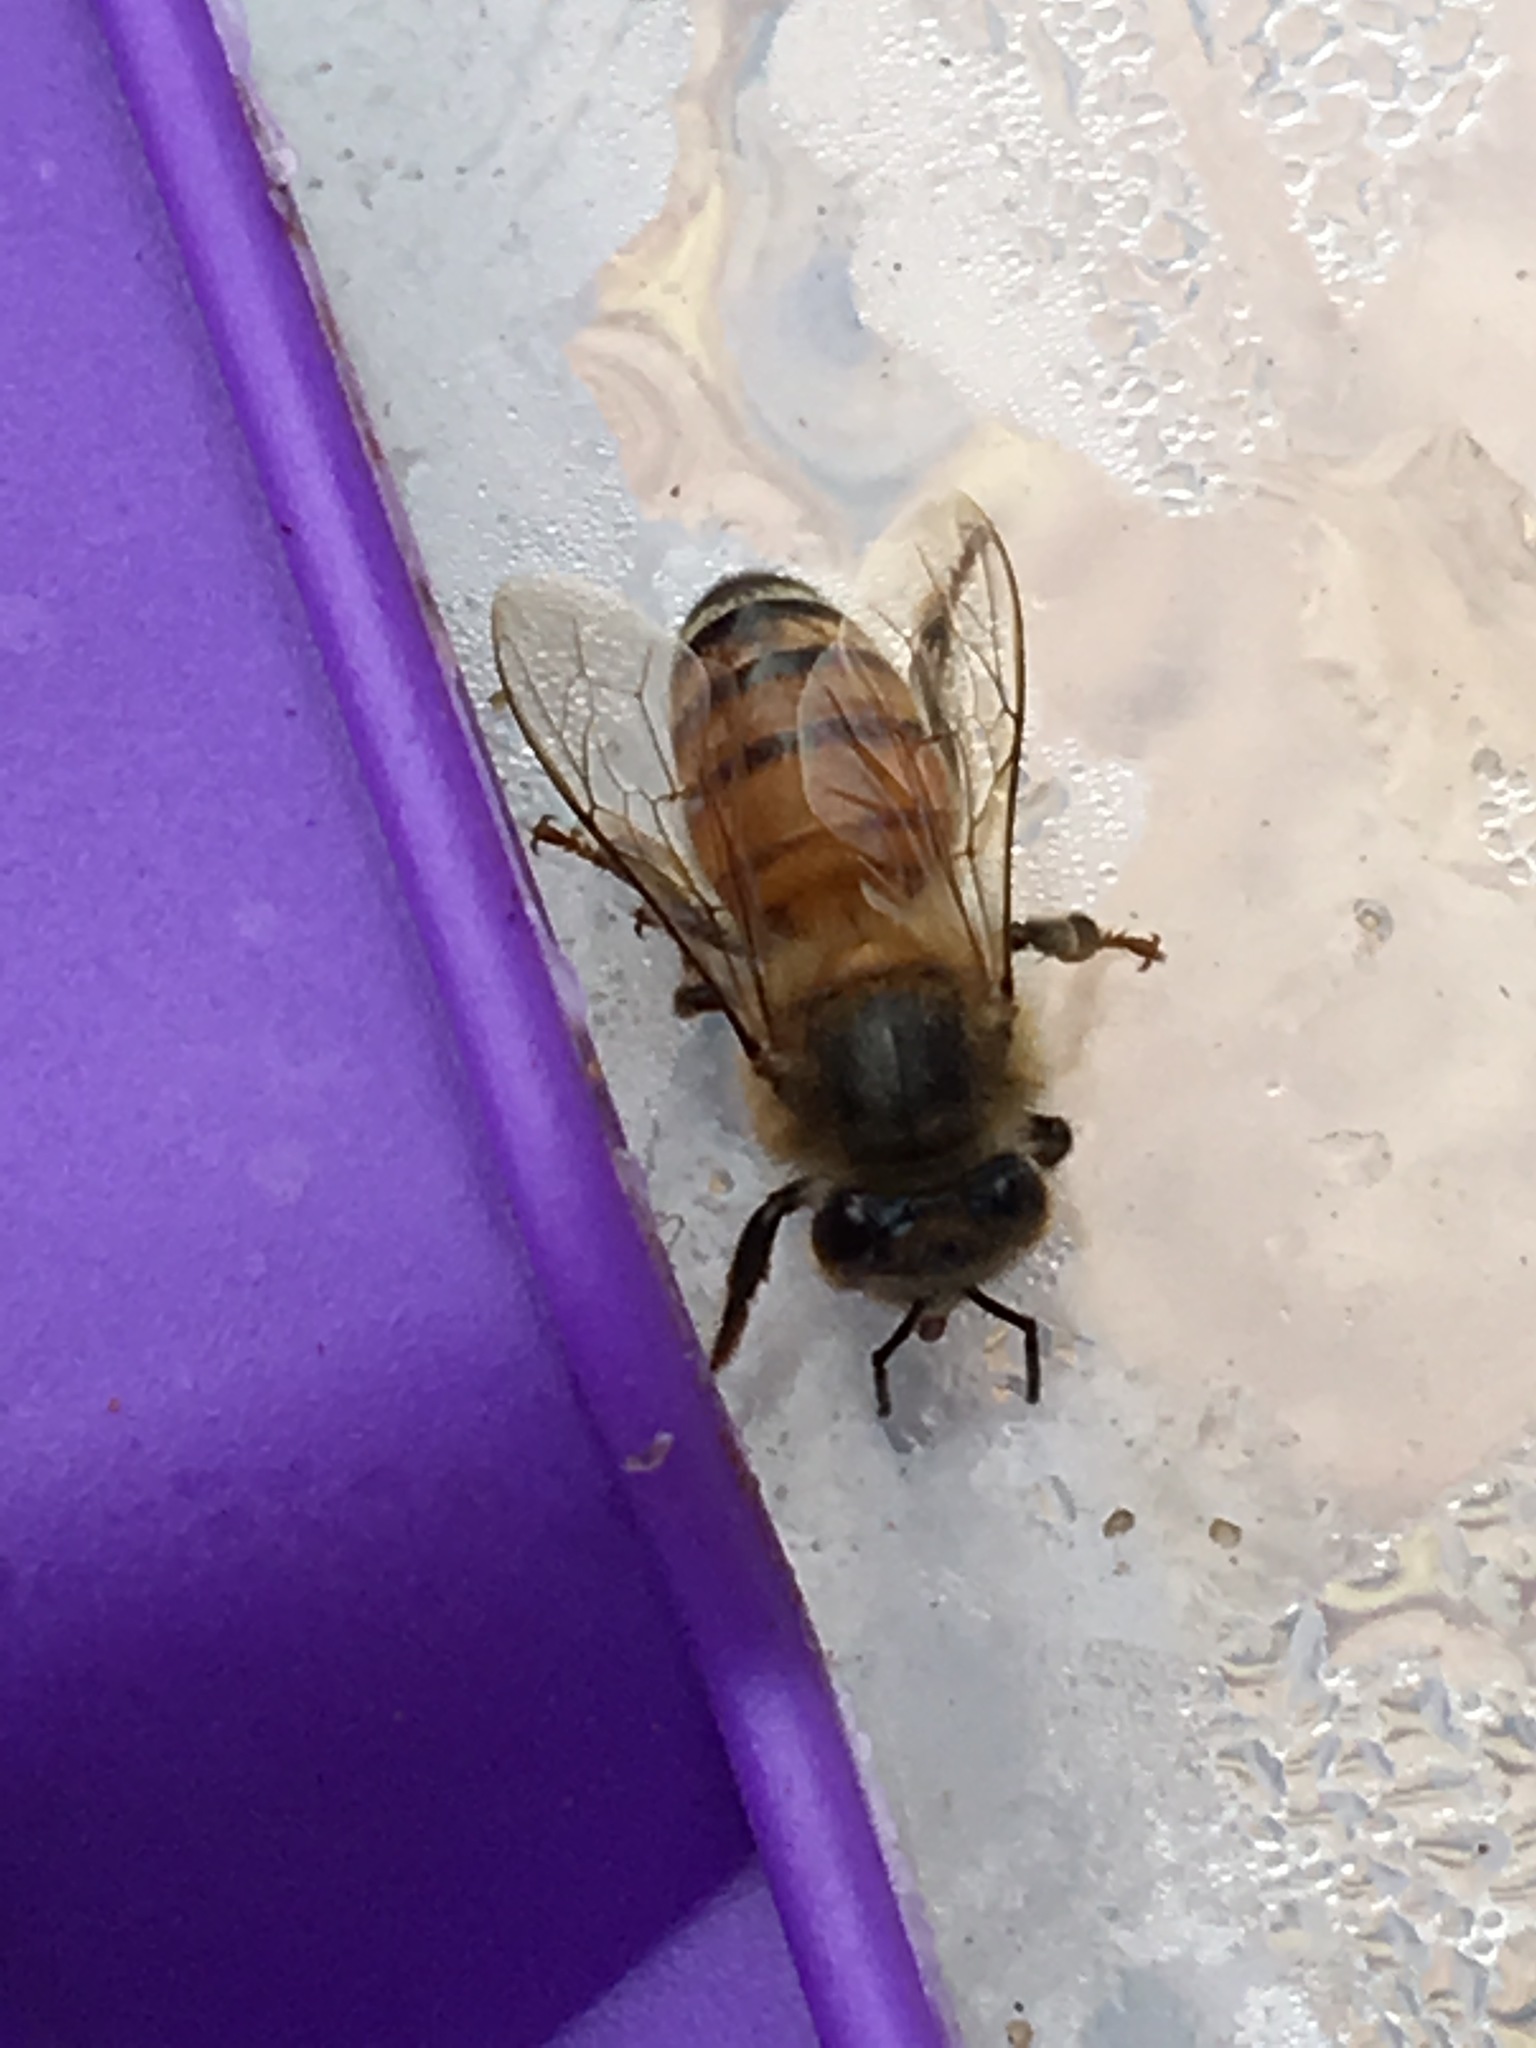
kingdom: Animalia
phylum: Arthropoda
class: Insecta
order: Hymenoptera
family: Apidae
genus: Apis
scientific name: Apis mellifera
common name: Honey bee
